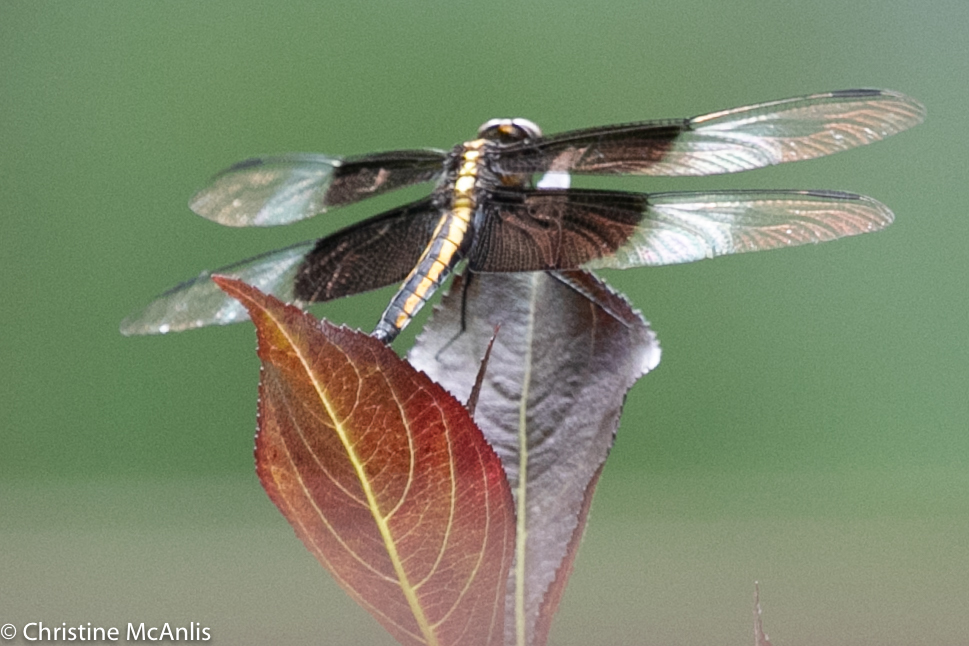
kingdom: Animalia
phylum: Arthropoda
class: Insecta
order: Odonata
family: Libellulidae
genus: Libellula
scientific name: Libellula luctuosa
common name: Widow skimmer
